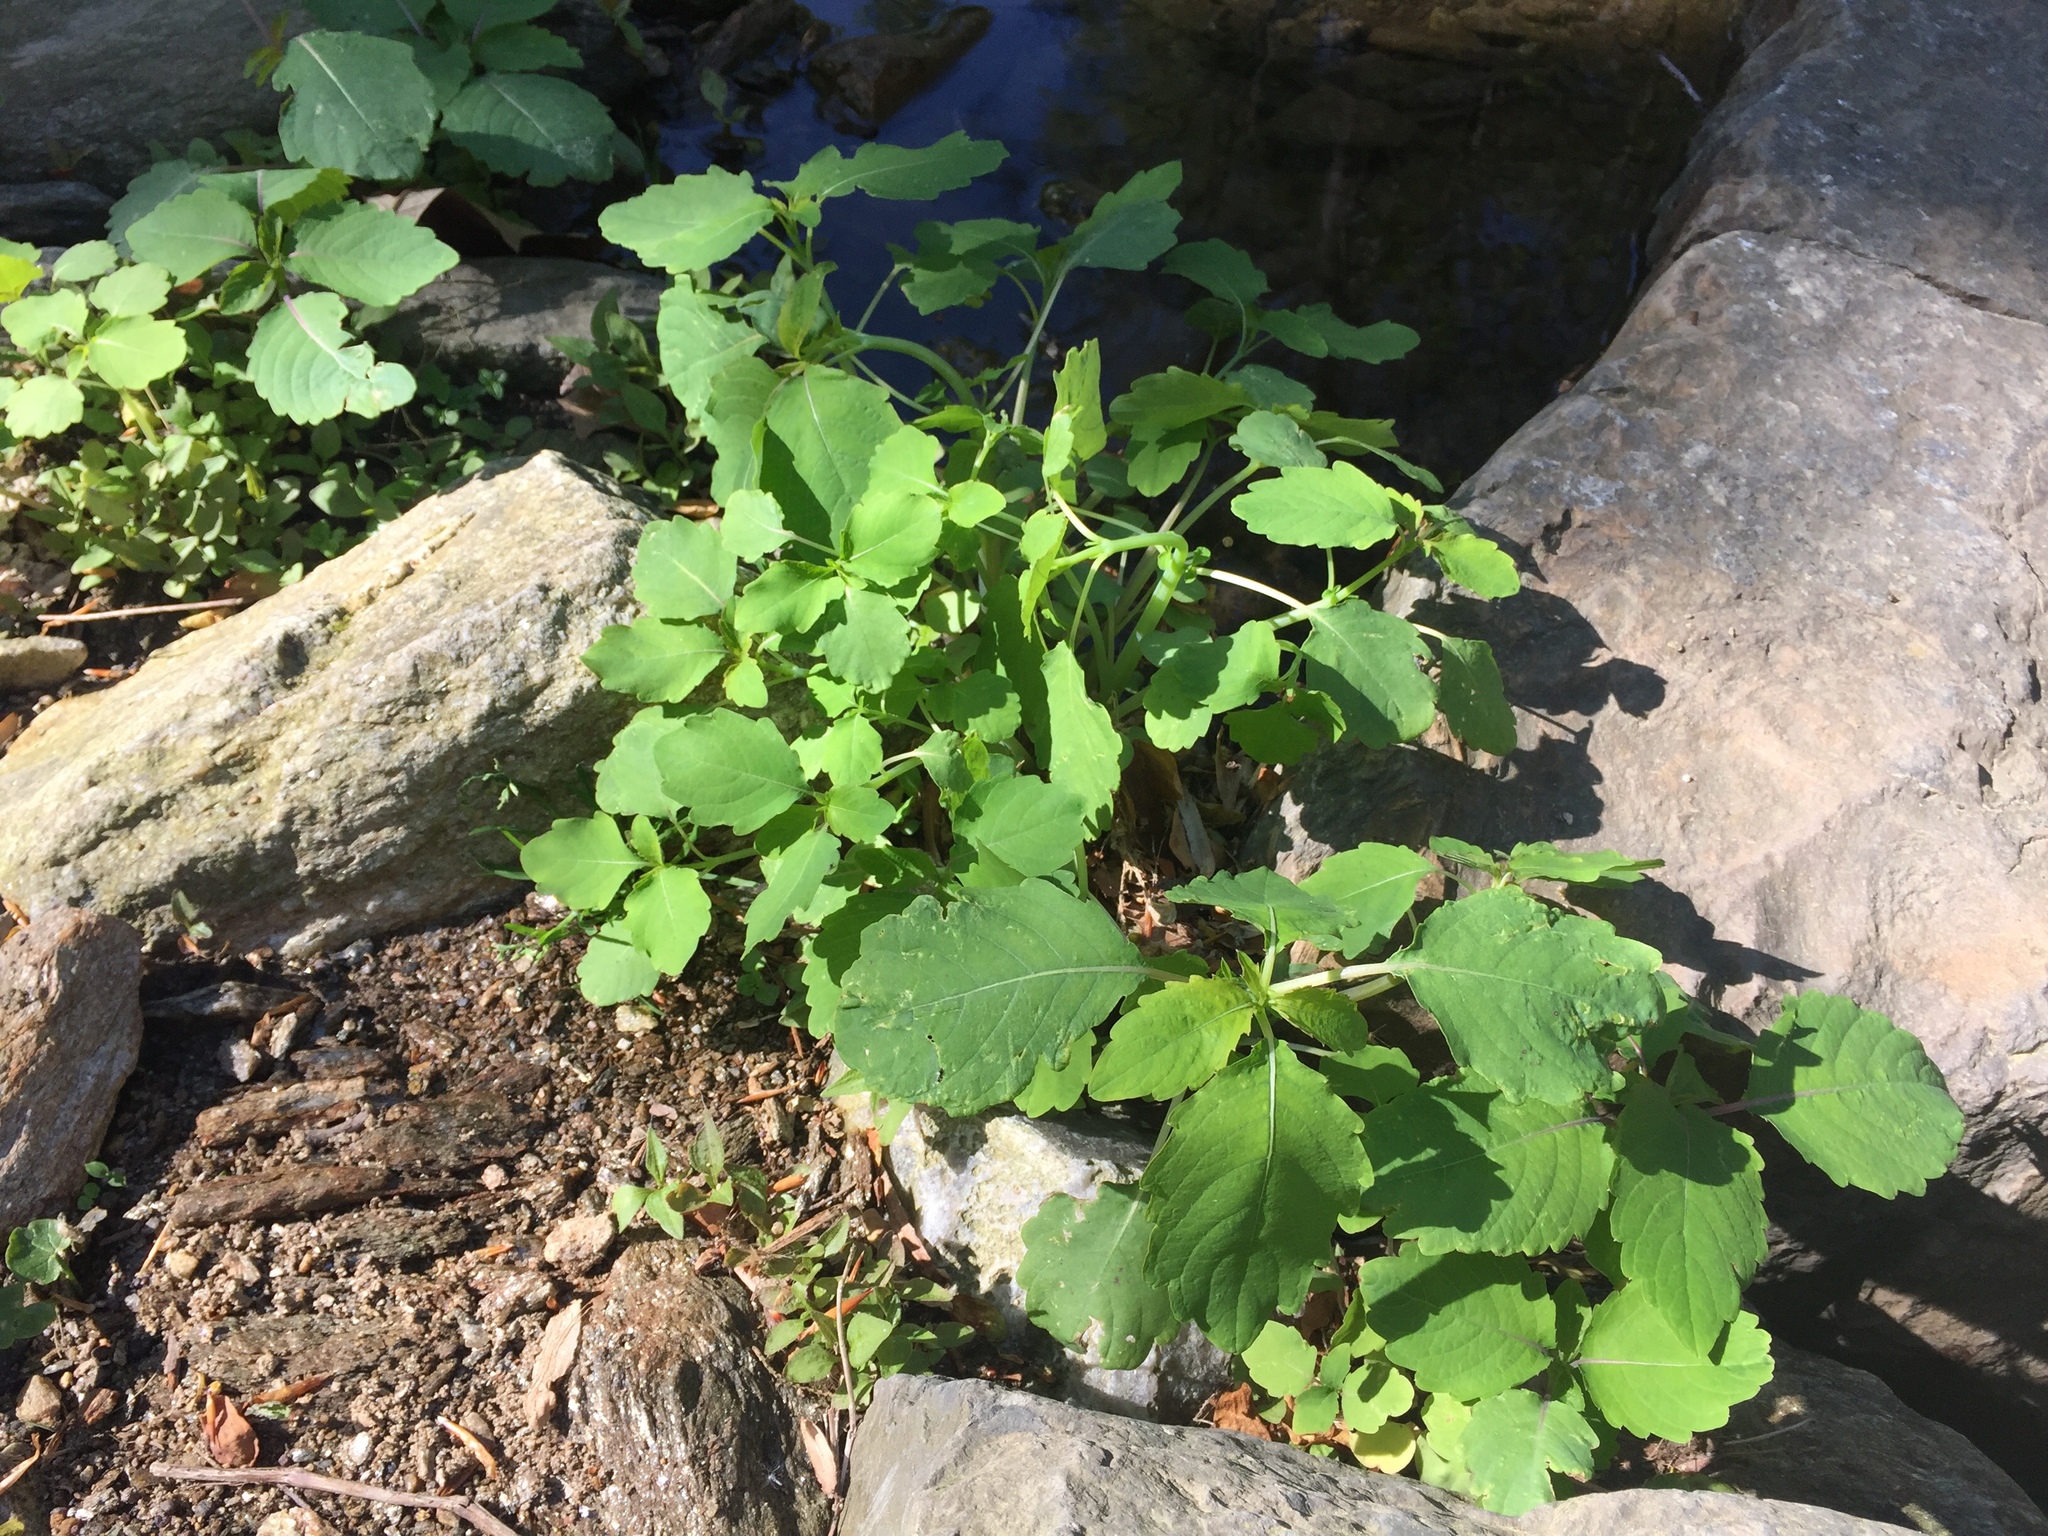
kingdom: Plantae
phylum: Tracheophyta
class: Magnoliopsida
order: Ericales
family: Balsaminaceae
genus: Impatiens
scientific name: Impatiens
